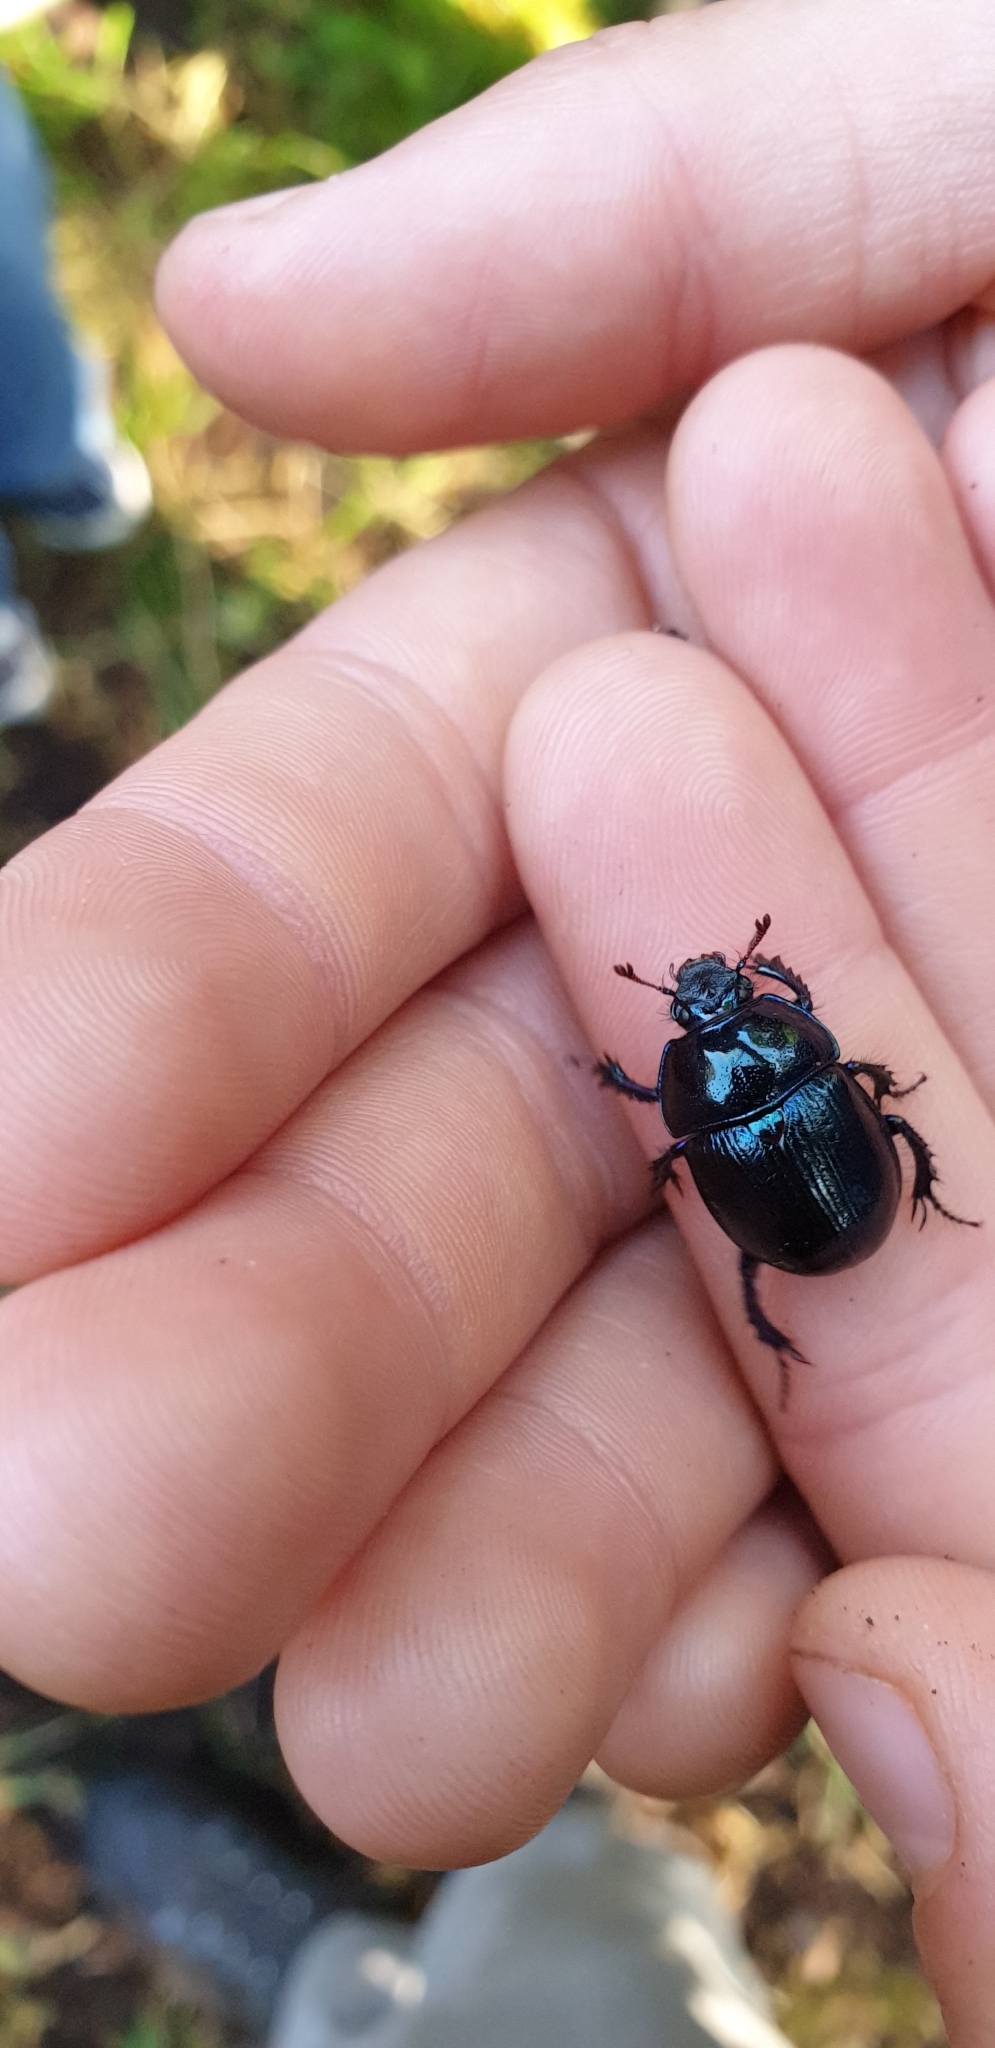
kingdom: Animalia
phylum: Arthropoda
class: Insecta
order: Coleoptera
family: Geotrupidae
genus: Anoplotrupes
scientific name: Anoplotrupes stercorosus
